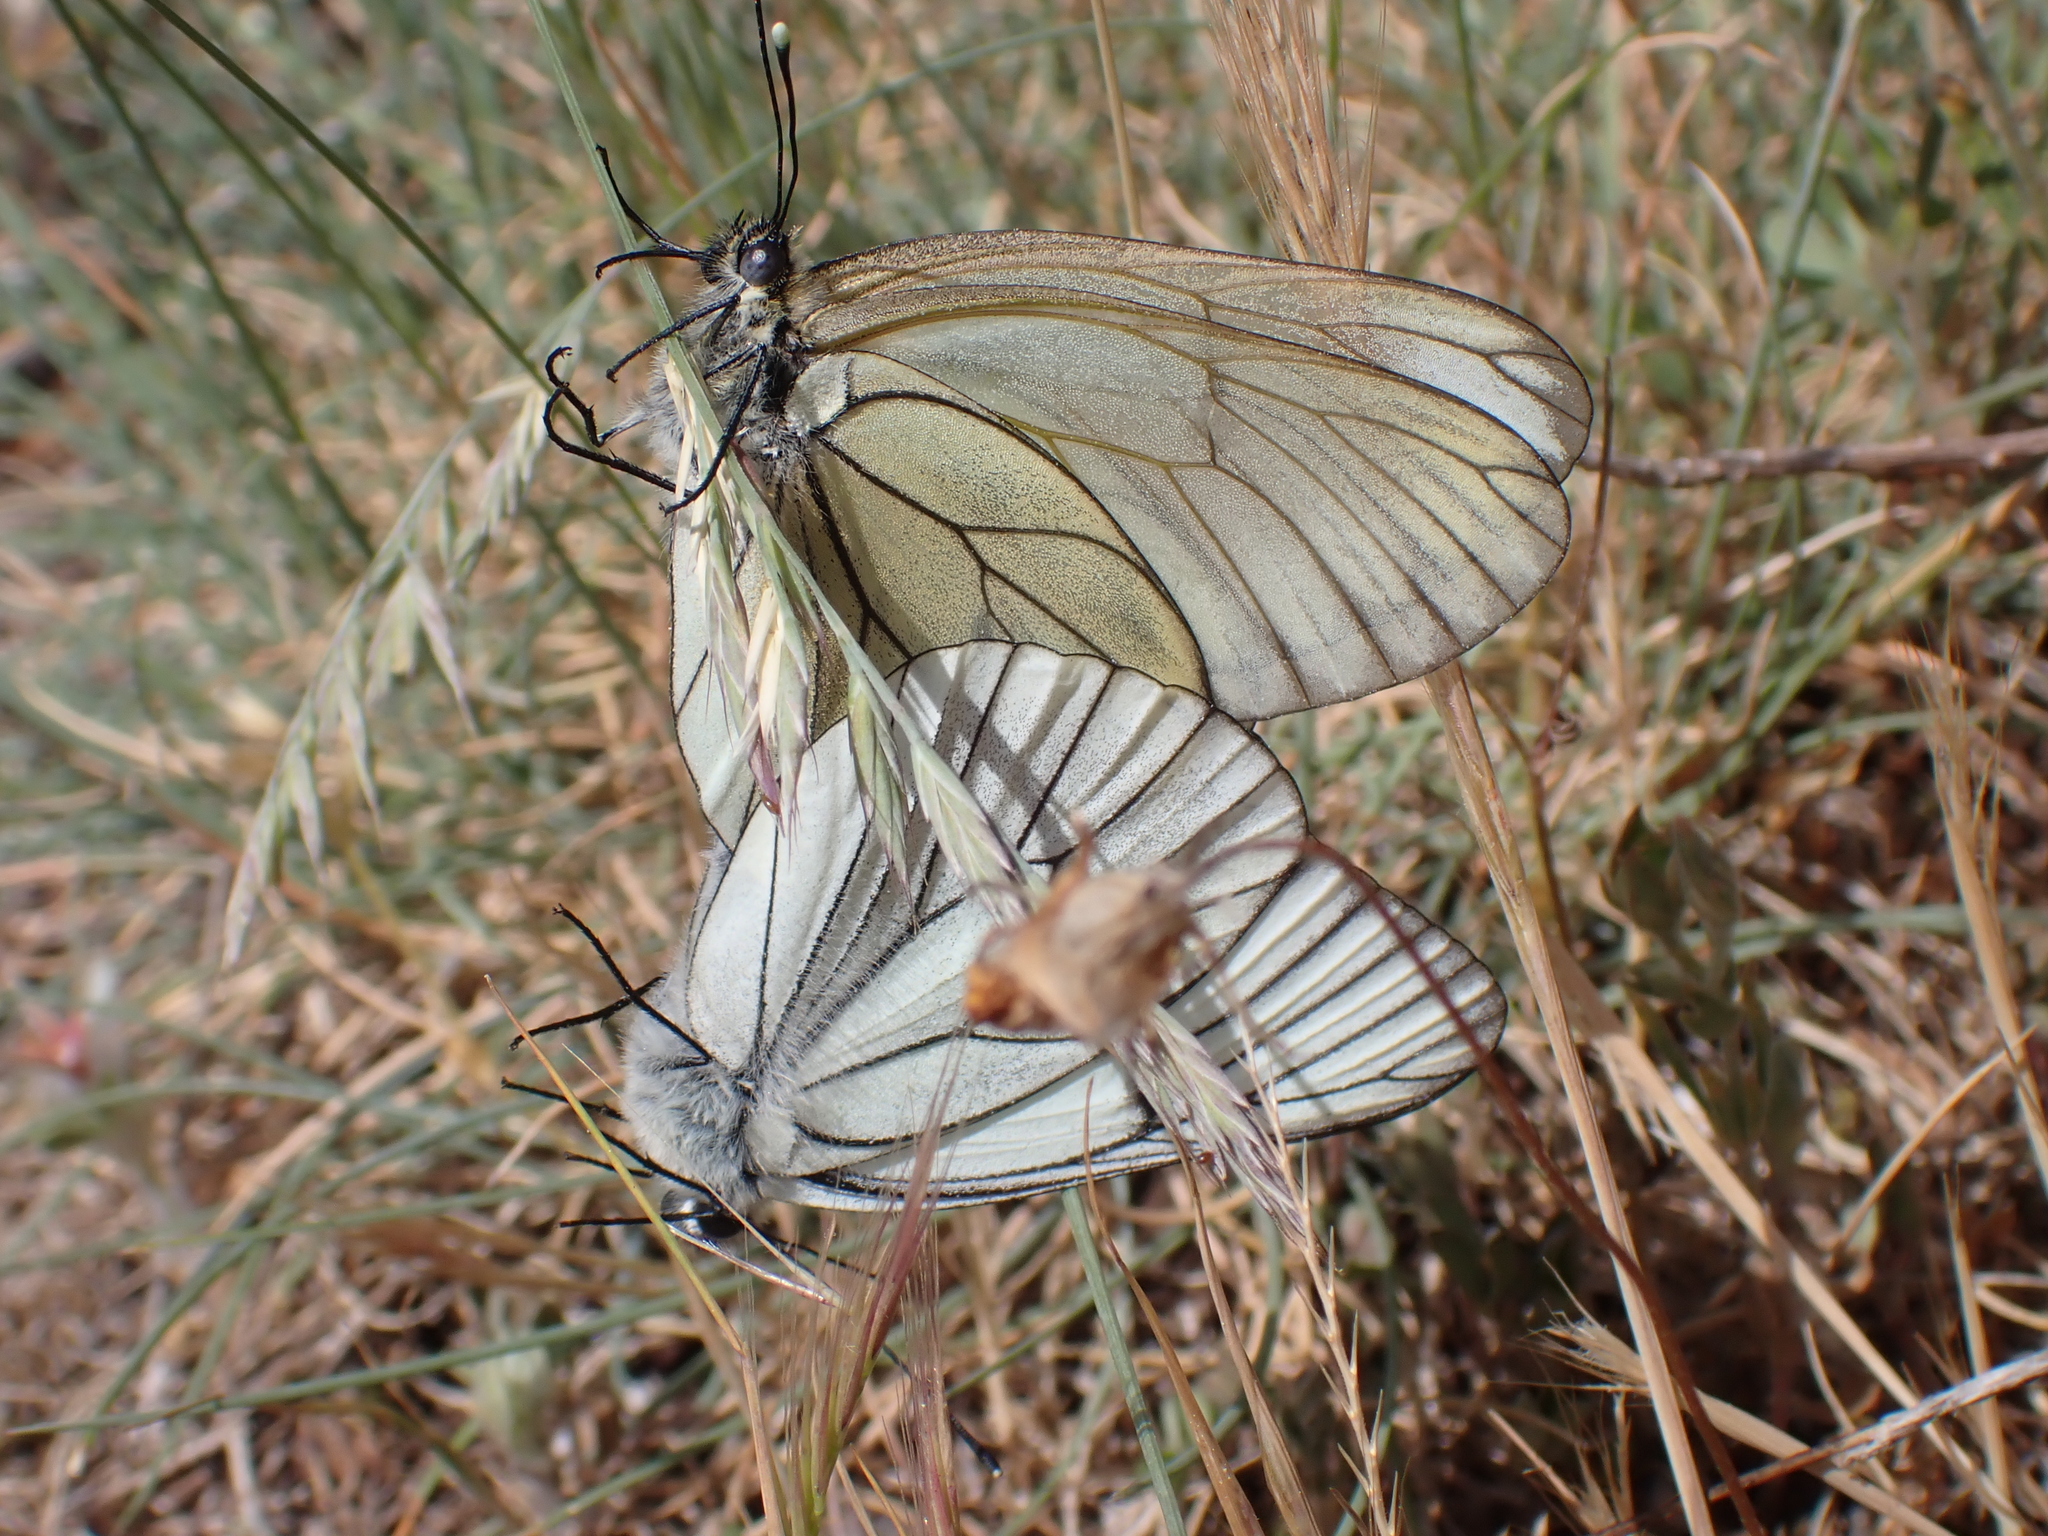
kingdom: Animalia
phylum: Arthropoda
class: Insecta
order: Lepidoptera
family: Pieridae
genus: Aporia
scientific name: Aporia crataegi
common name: Black-veined white
